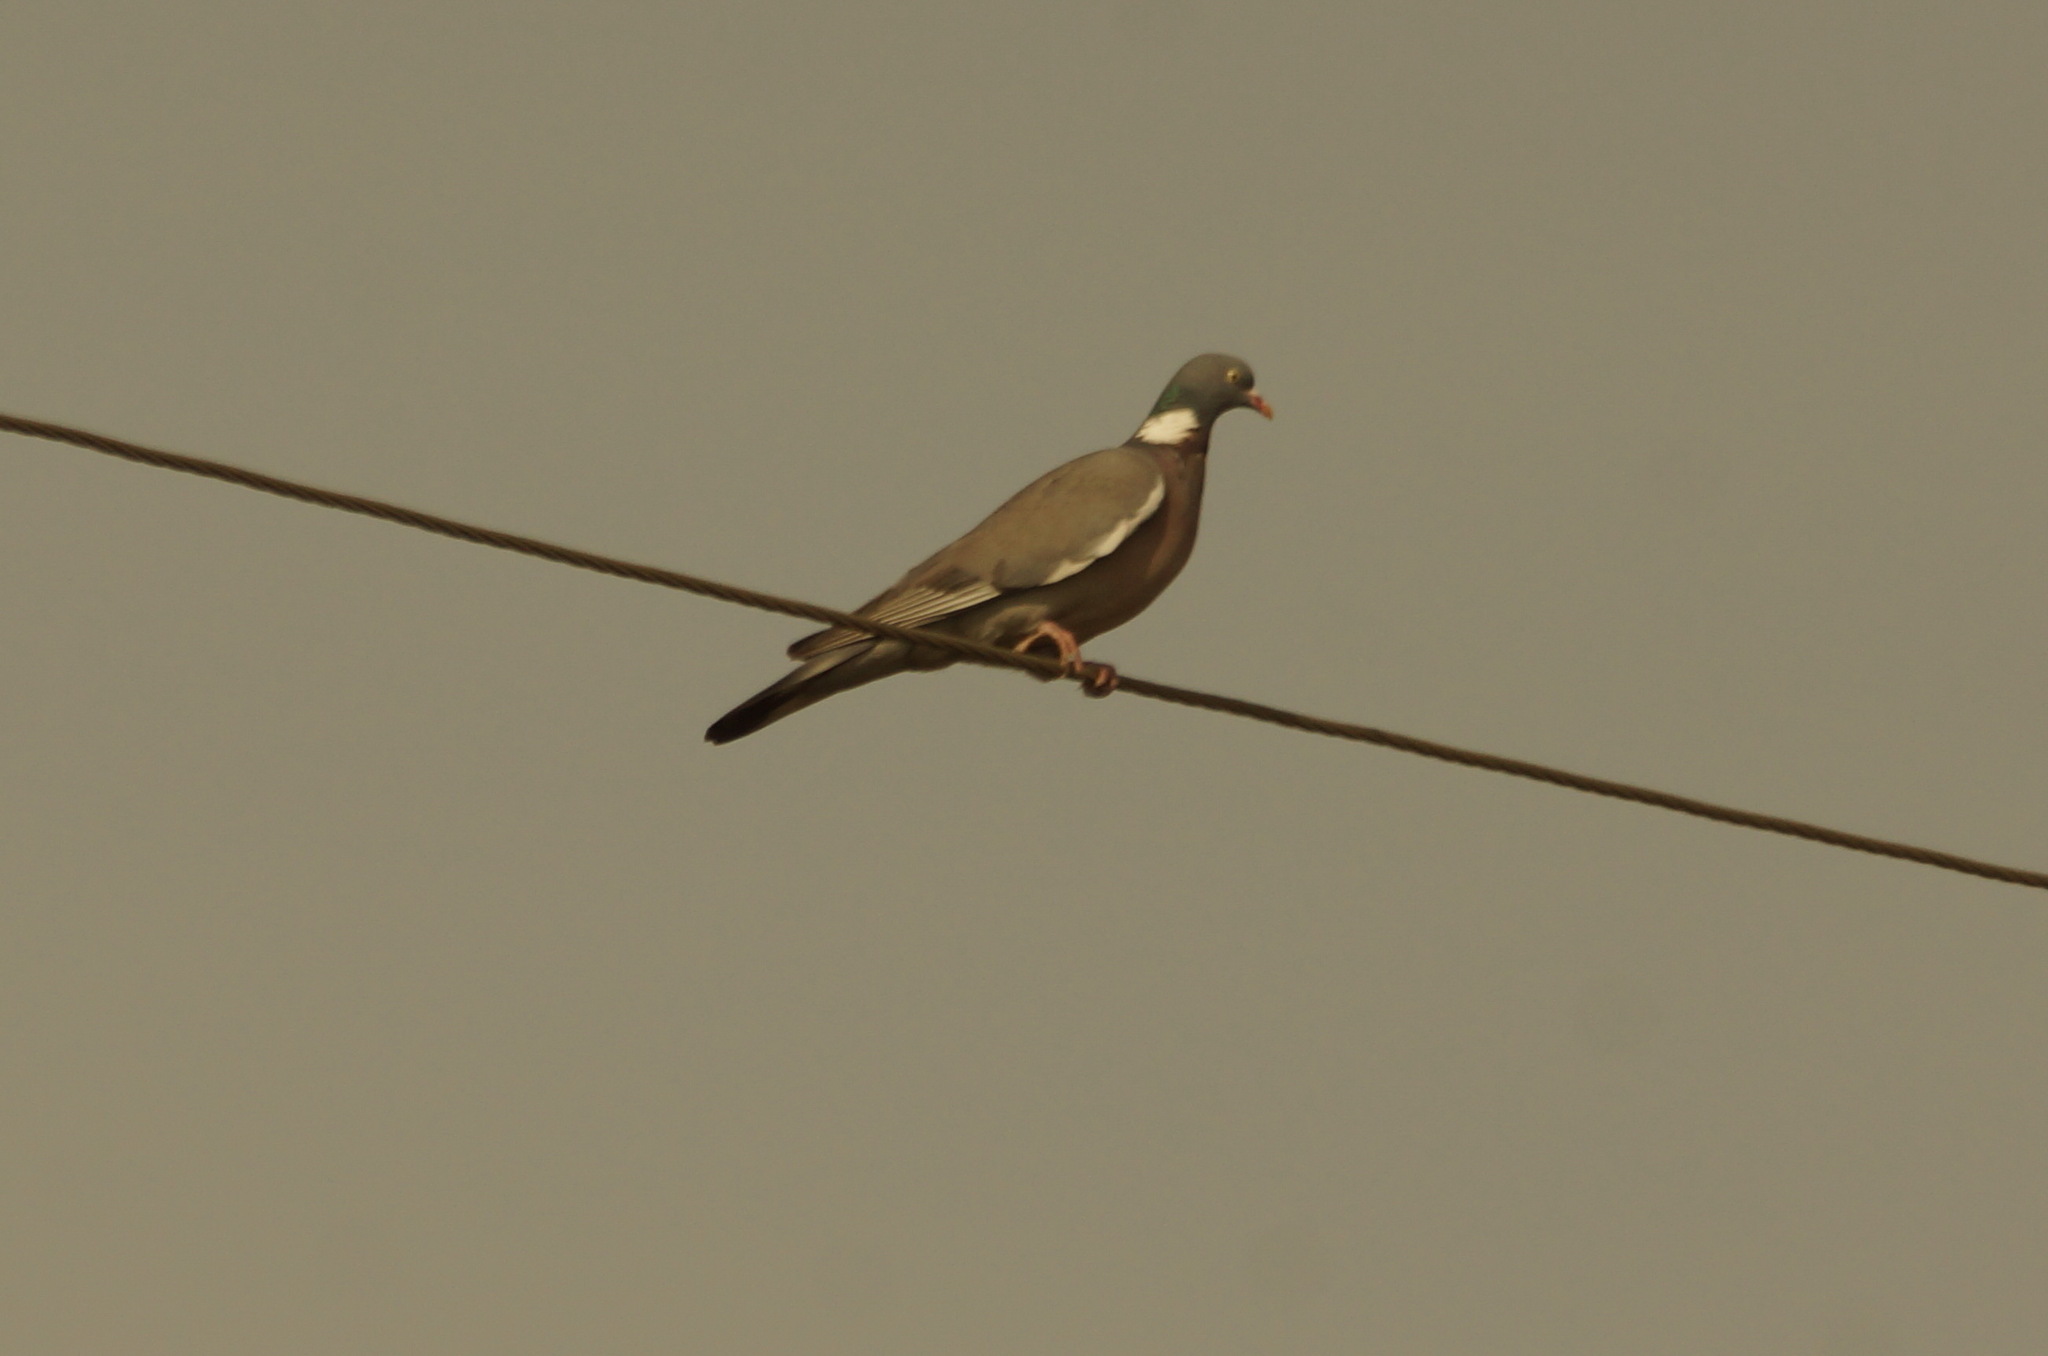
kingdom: Animalia
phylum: Chordata
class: Aves
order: Columbiformes
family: Columbidae
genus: Columba
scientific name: Columba palumbus
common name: Common wood pigeon
